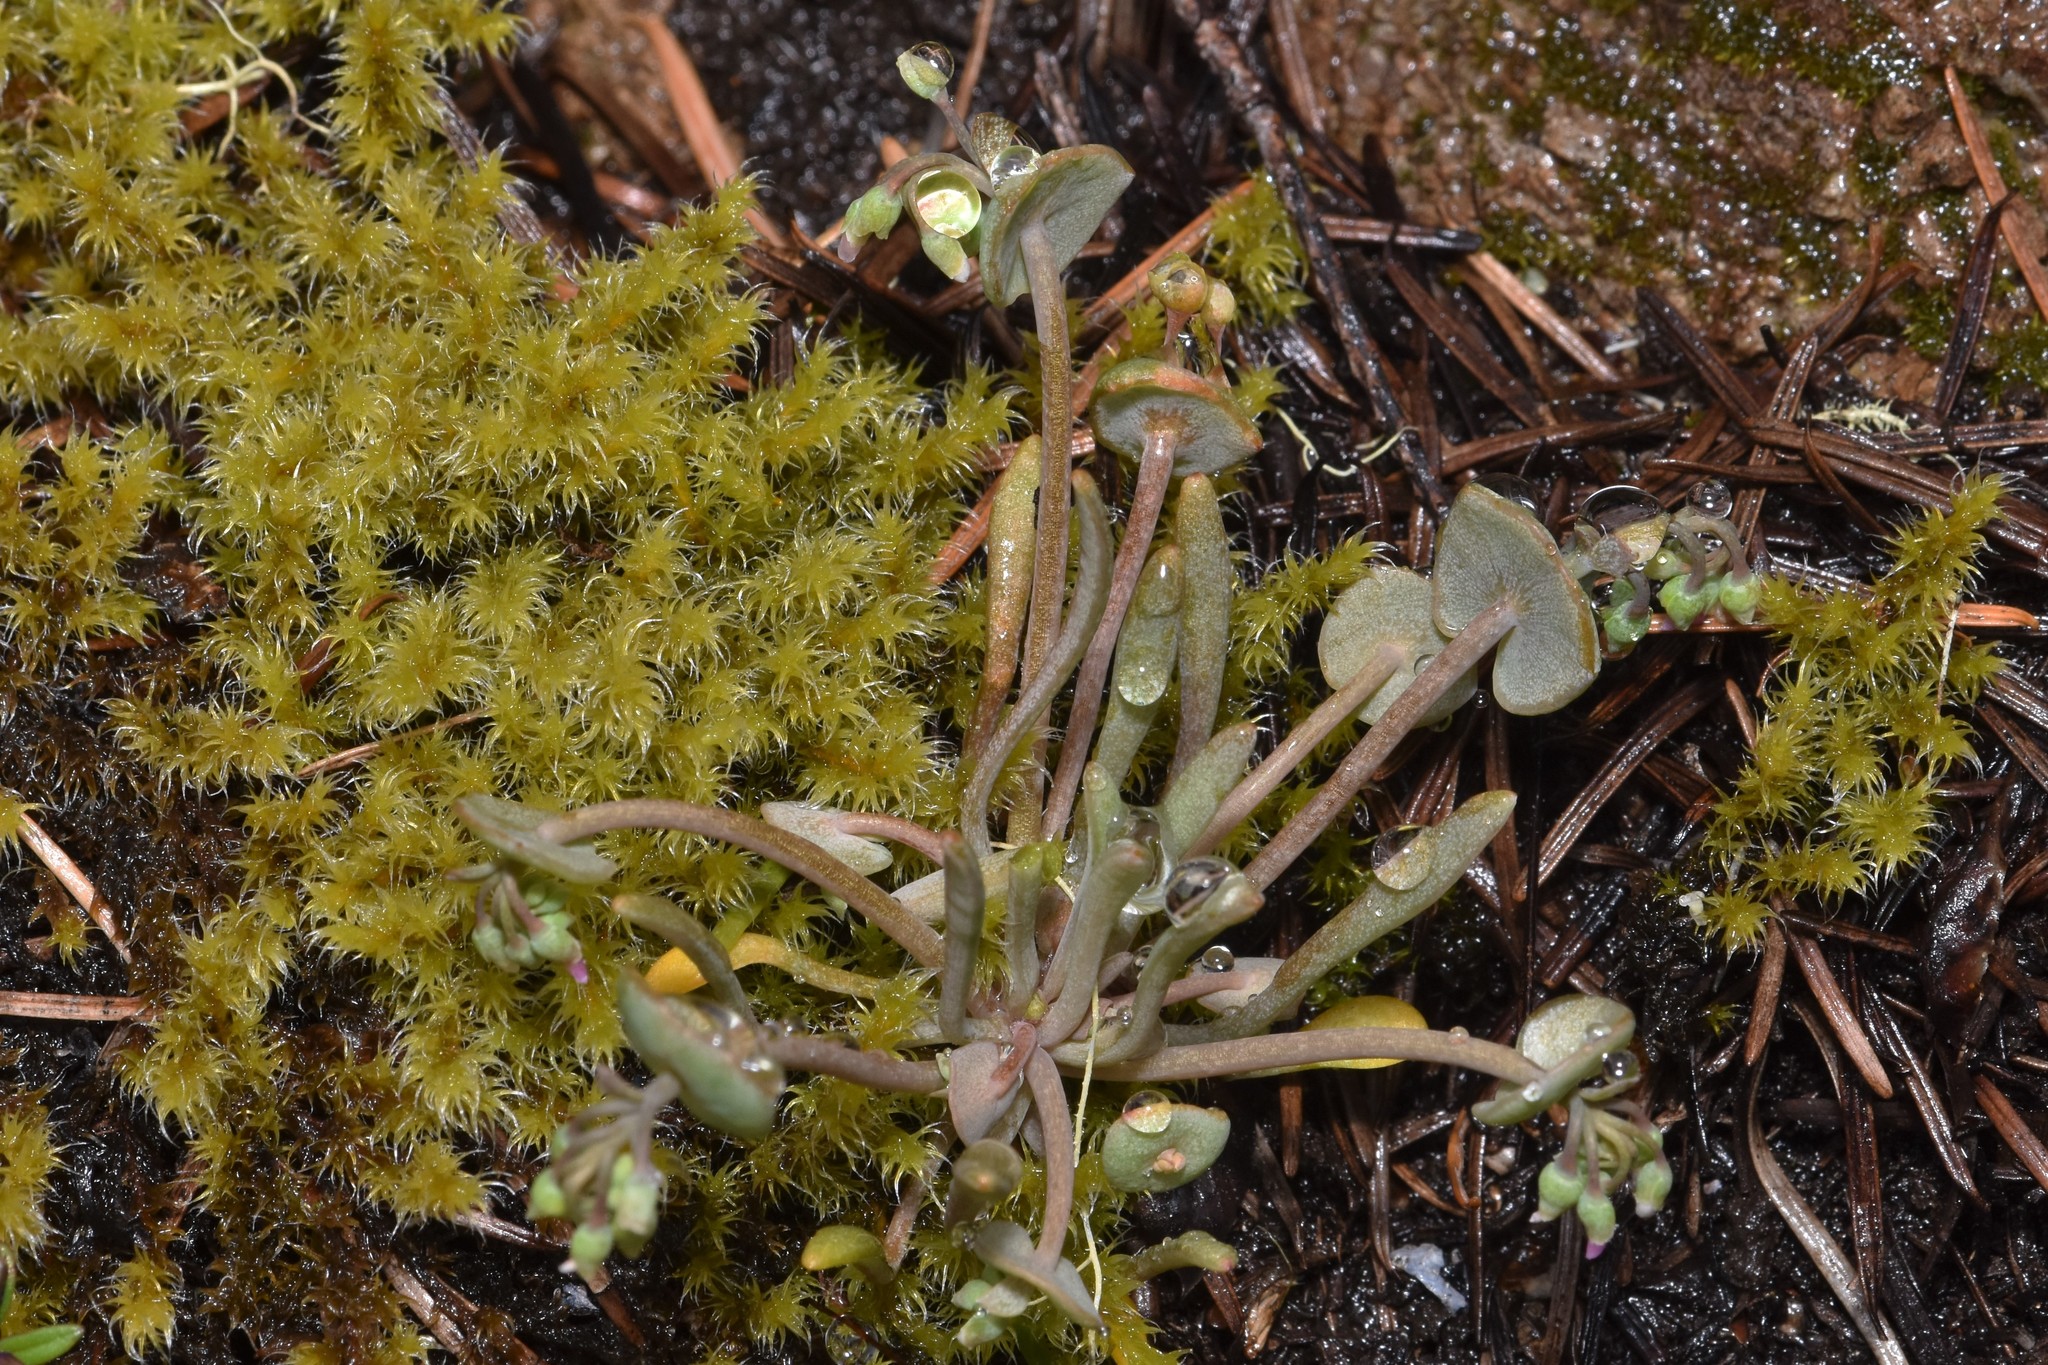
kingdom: Plantae
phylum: Tracheophyta
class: Magnoliopsida
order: Caryophyllales
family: Montiaceae
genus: Claytonia
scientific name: Claytonia exigua
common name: Pale spring beauty
